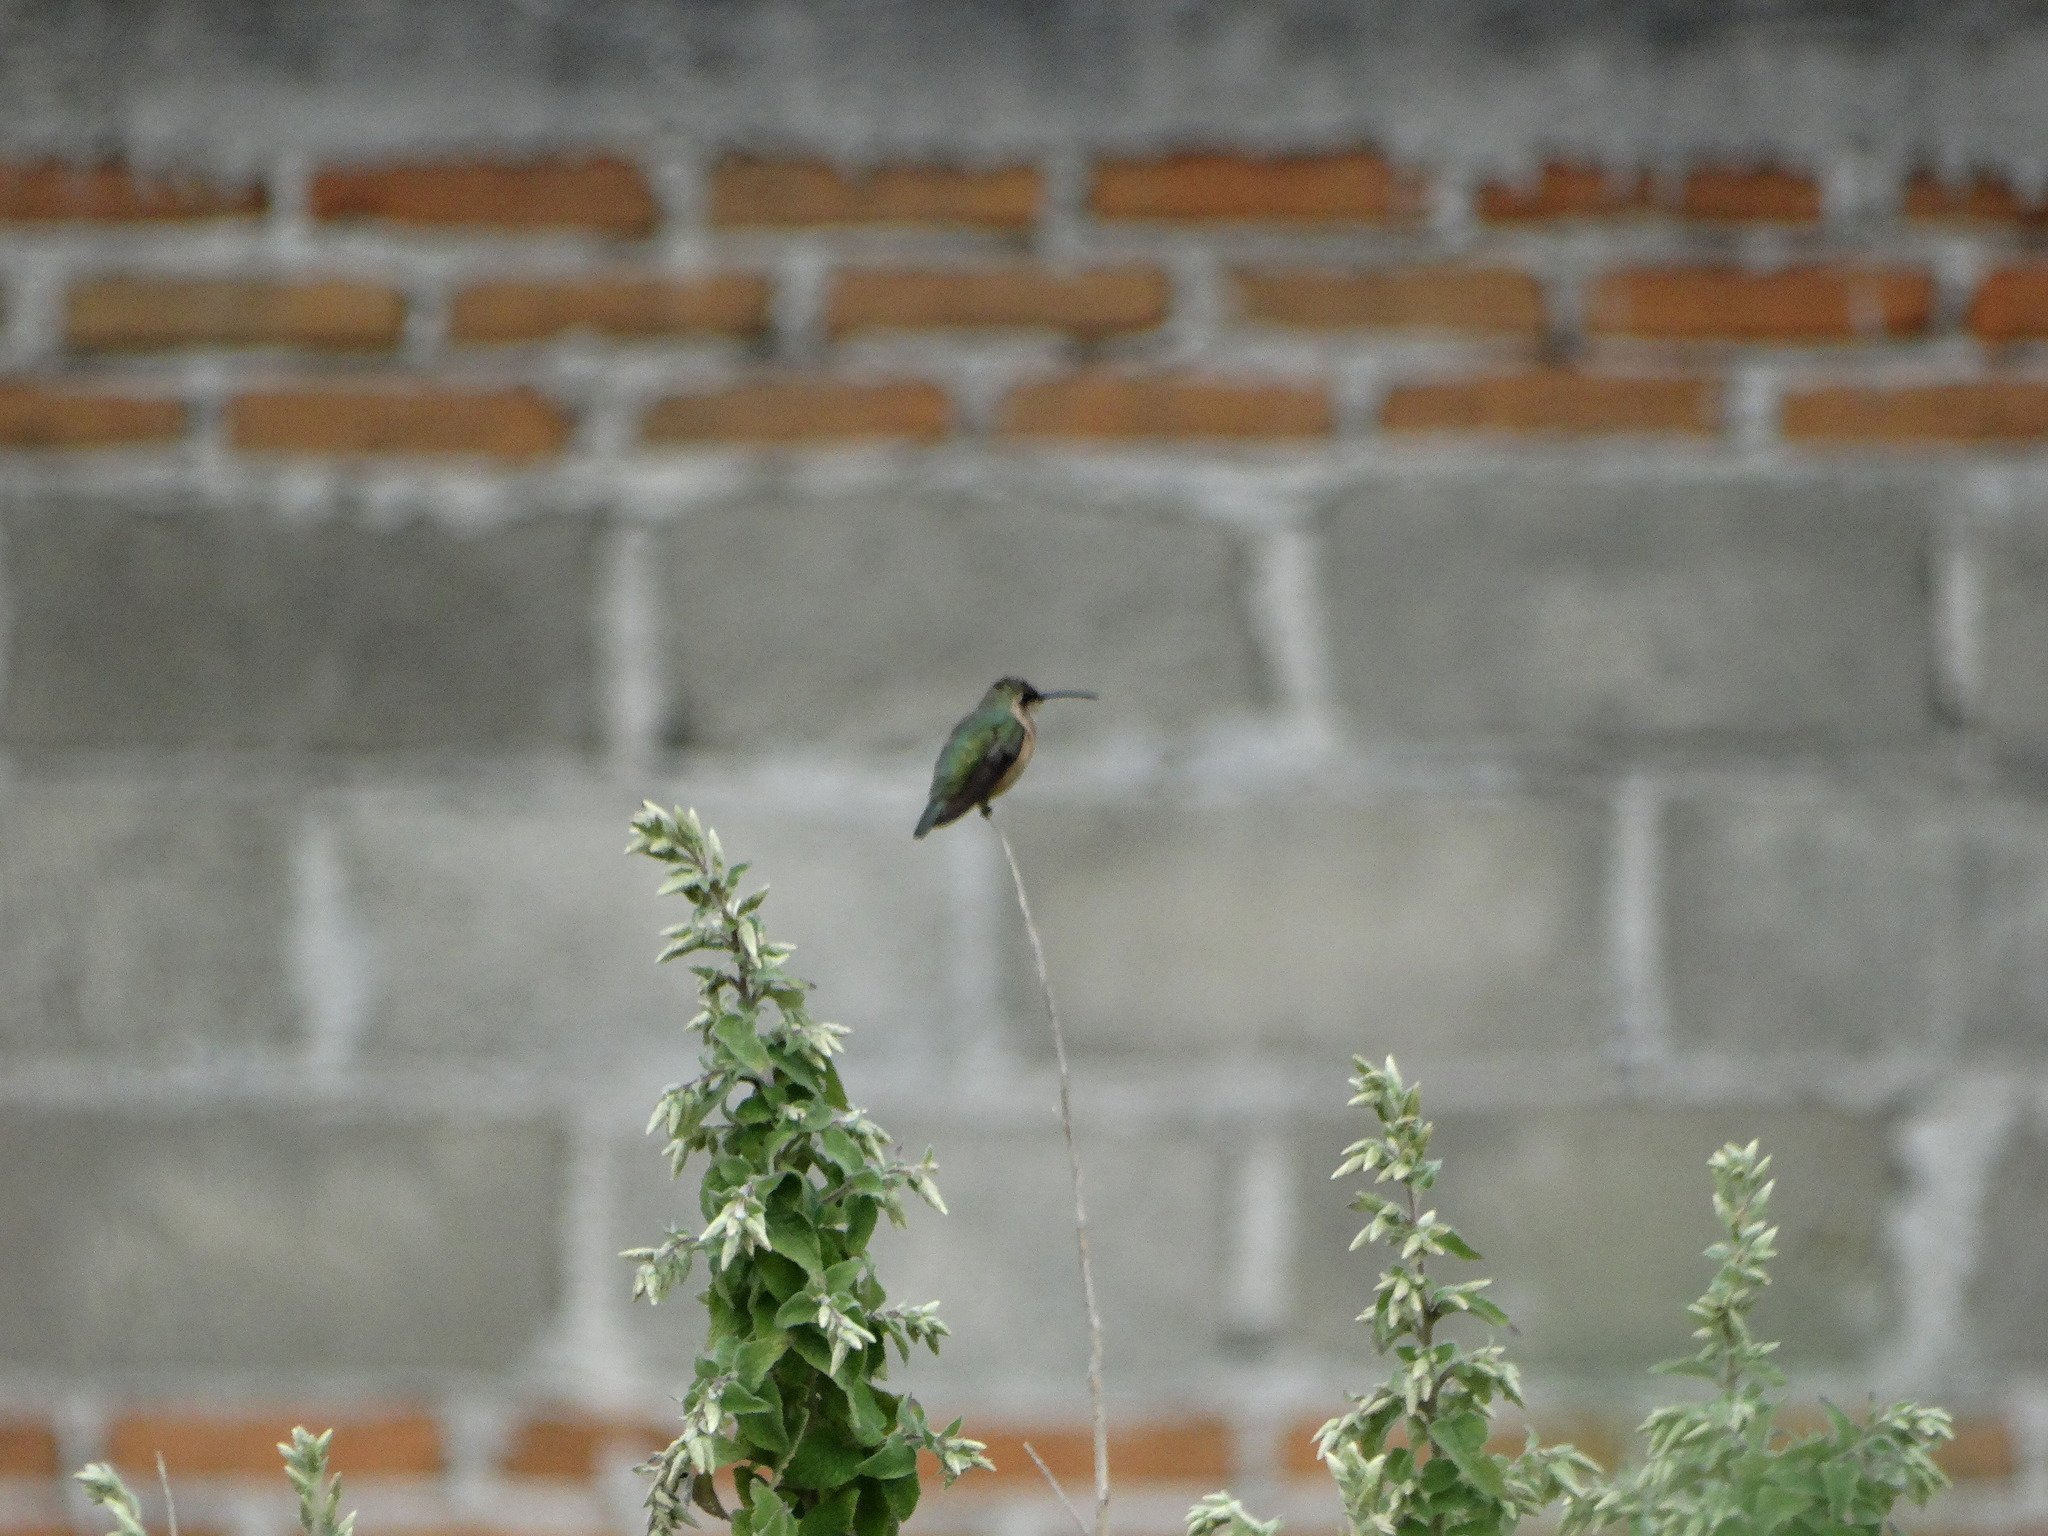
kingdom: Animalia
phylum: Chordata
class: Aves
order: Apodiformes
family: Trochilidae
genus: Calothorax
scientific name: Calothorax lucifer
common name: Lucifer sheartail
